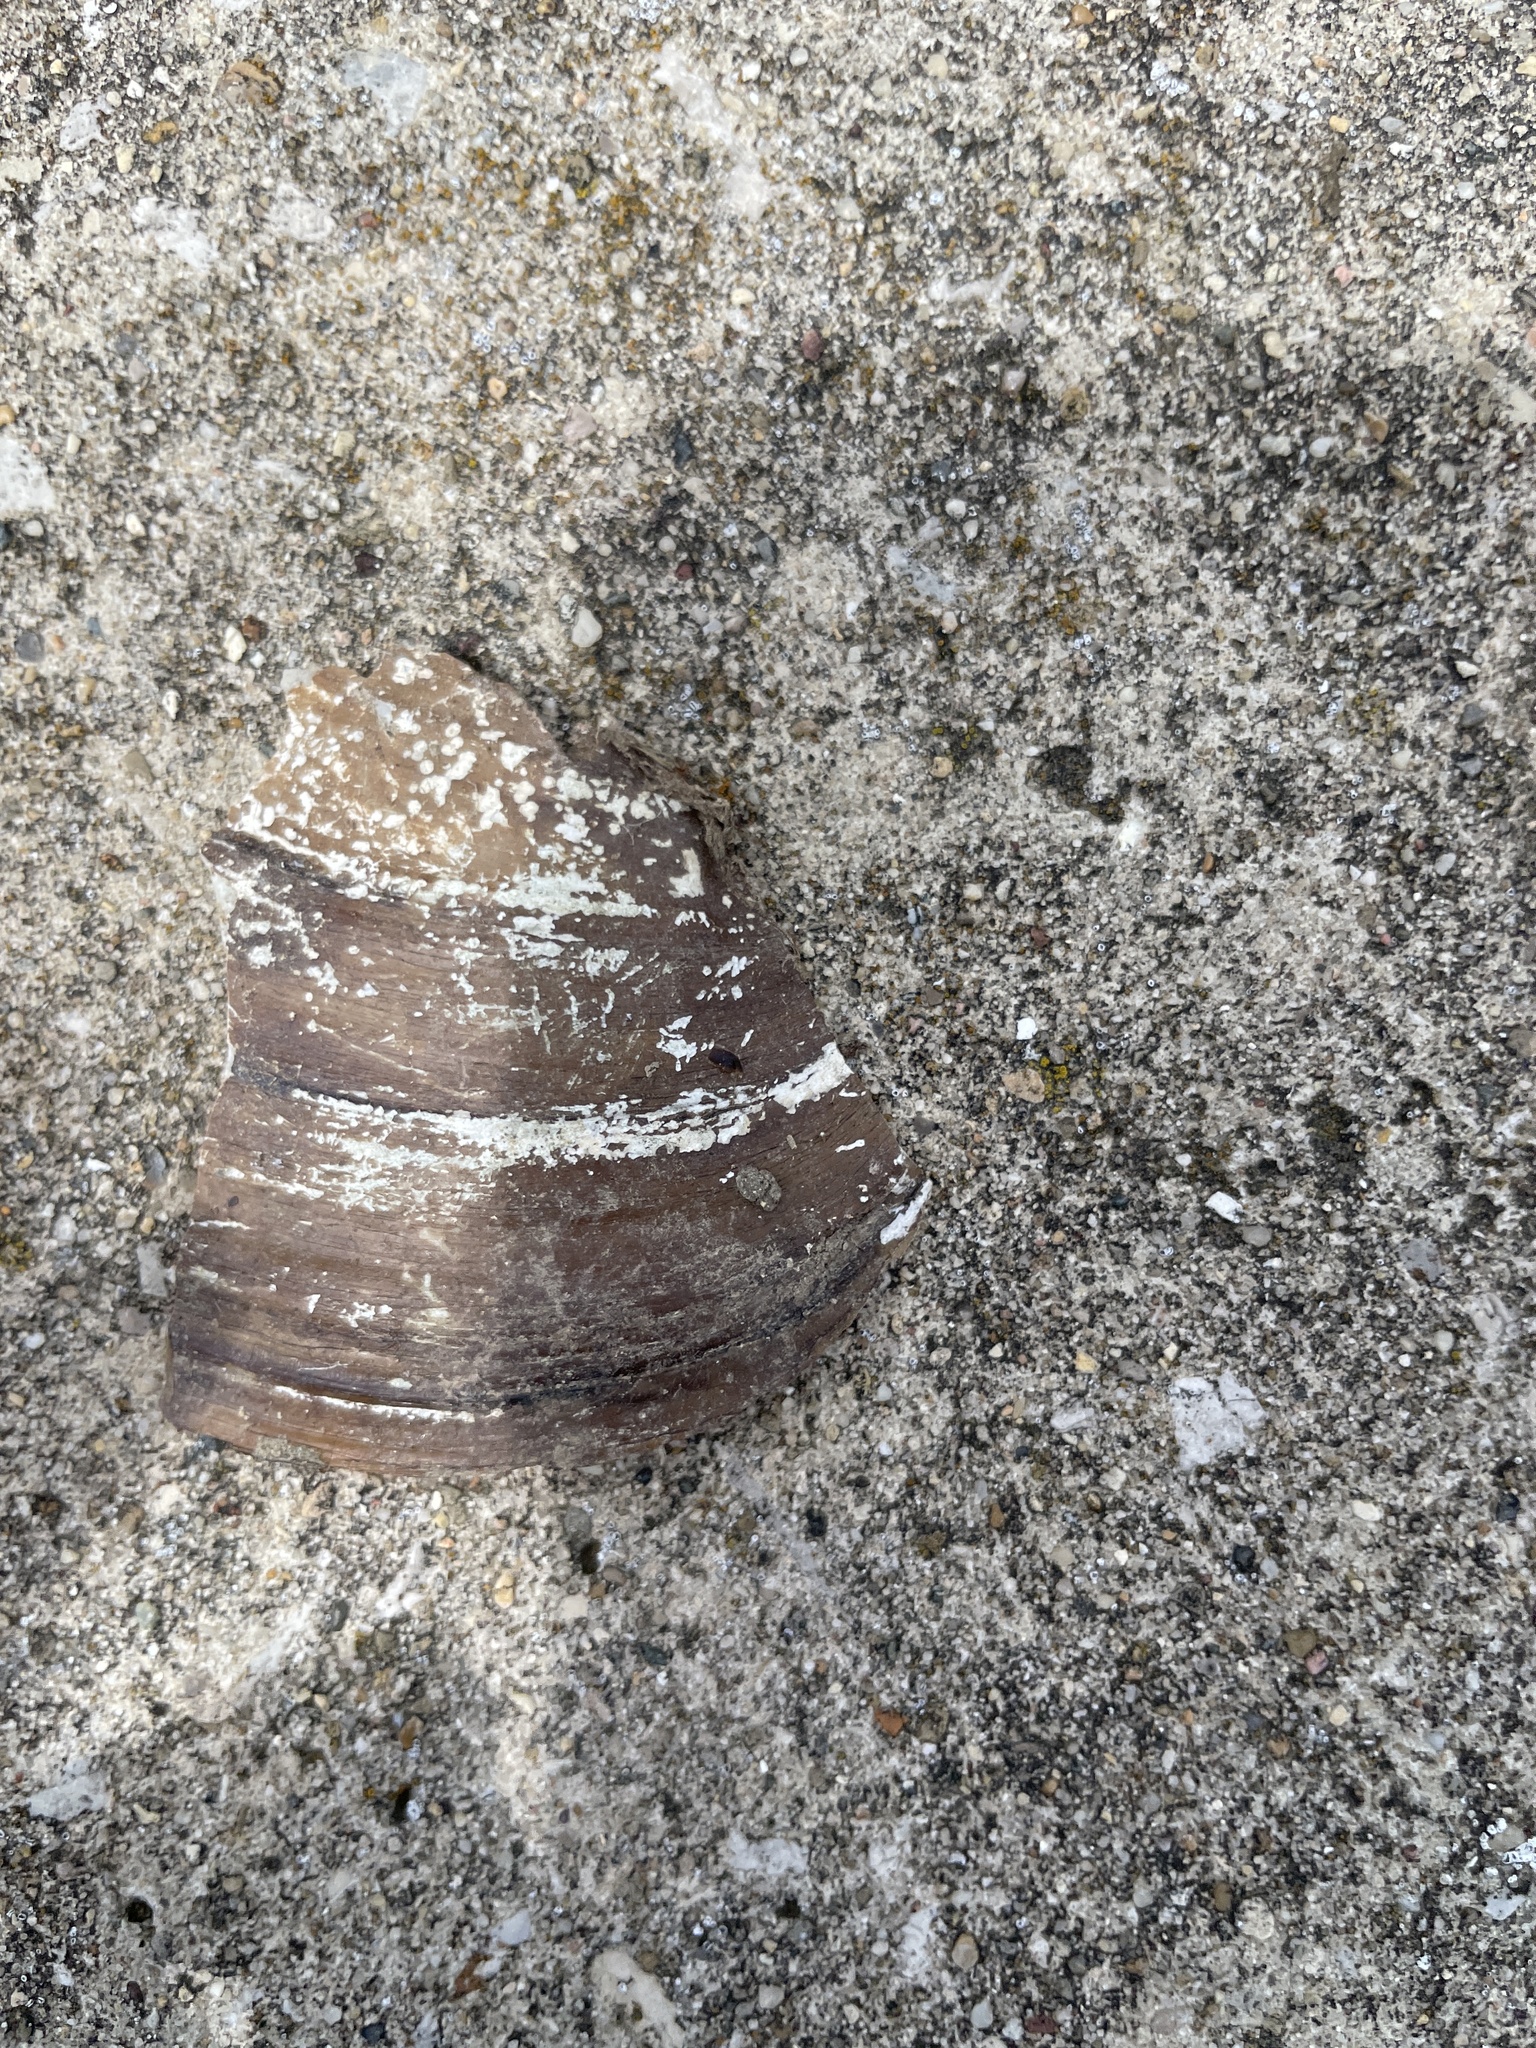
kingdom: Animalia
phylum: Mollusca
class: Bivalvia
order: Unionida
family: Unionidae
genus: Pyganodon
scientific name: Pyganodon grandis
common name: Giant floater
